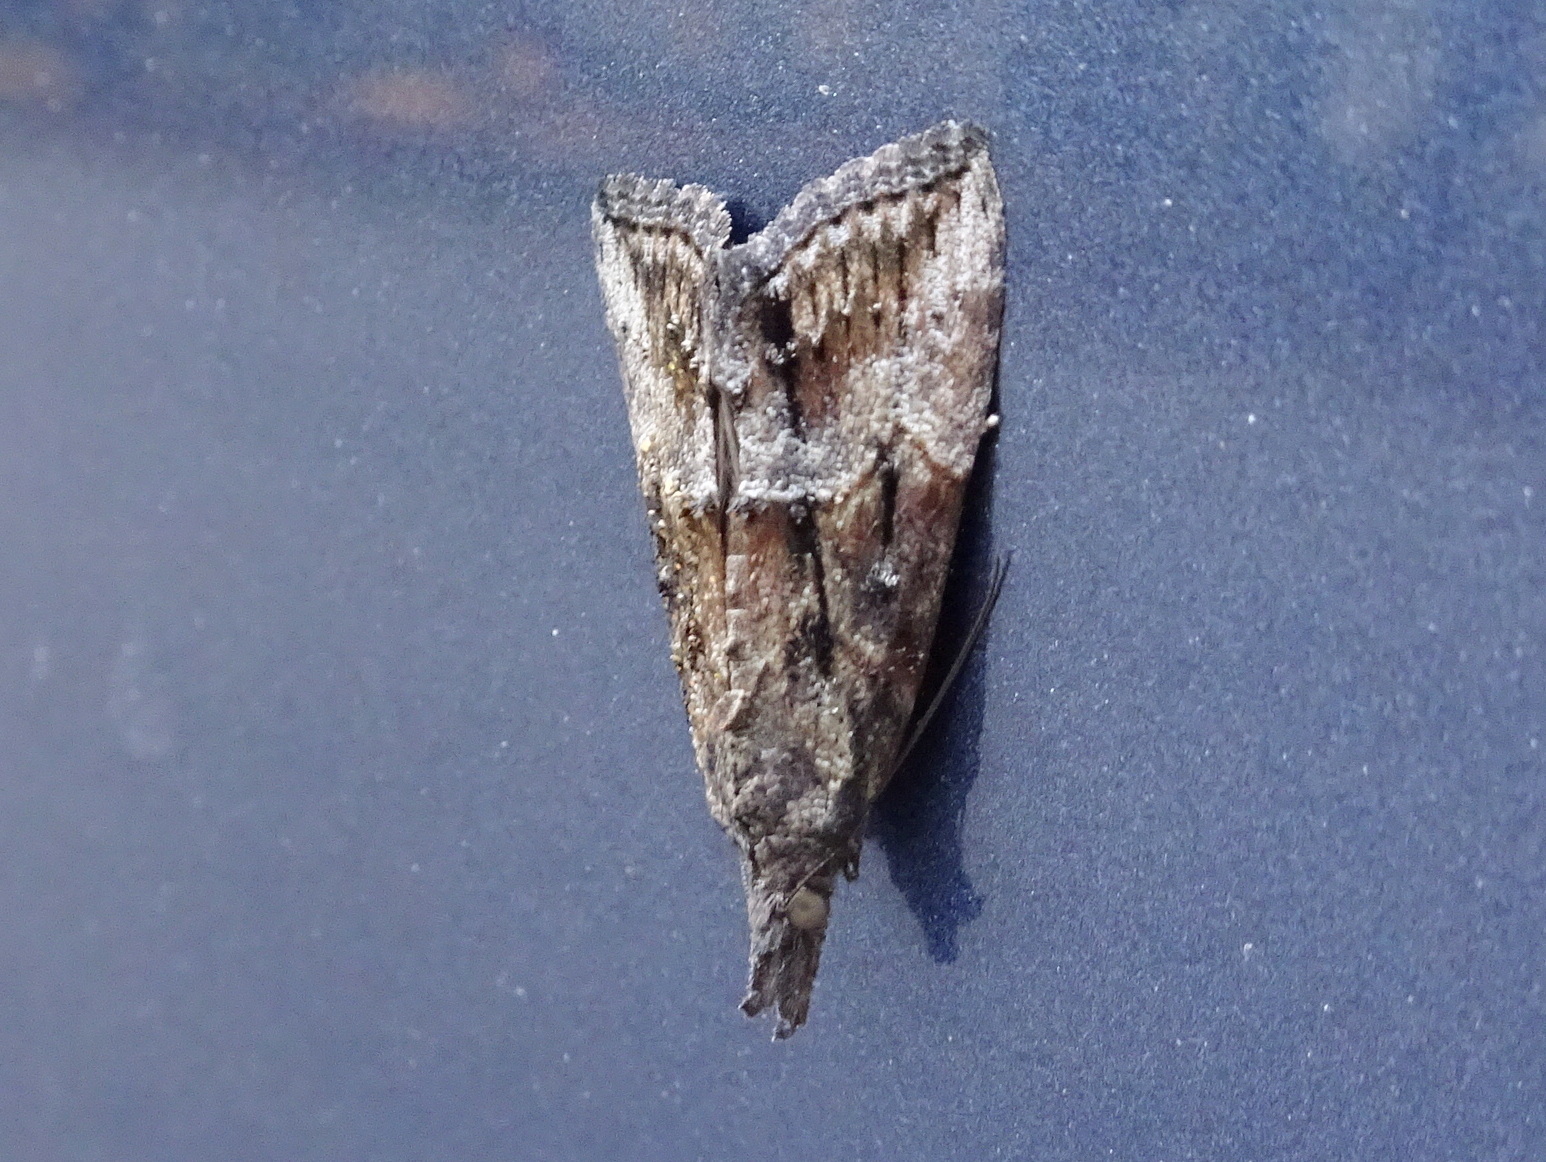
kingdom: Animalia
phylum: Arthropoda
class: Insecta
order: Lepidoptera
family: Erebidae
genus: Hypena
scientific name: Hypena scabra
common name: Green cloverworm
